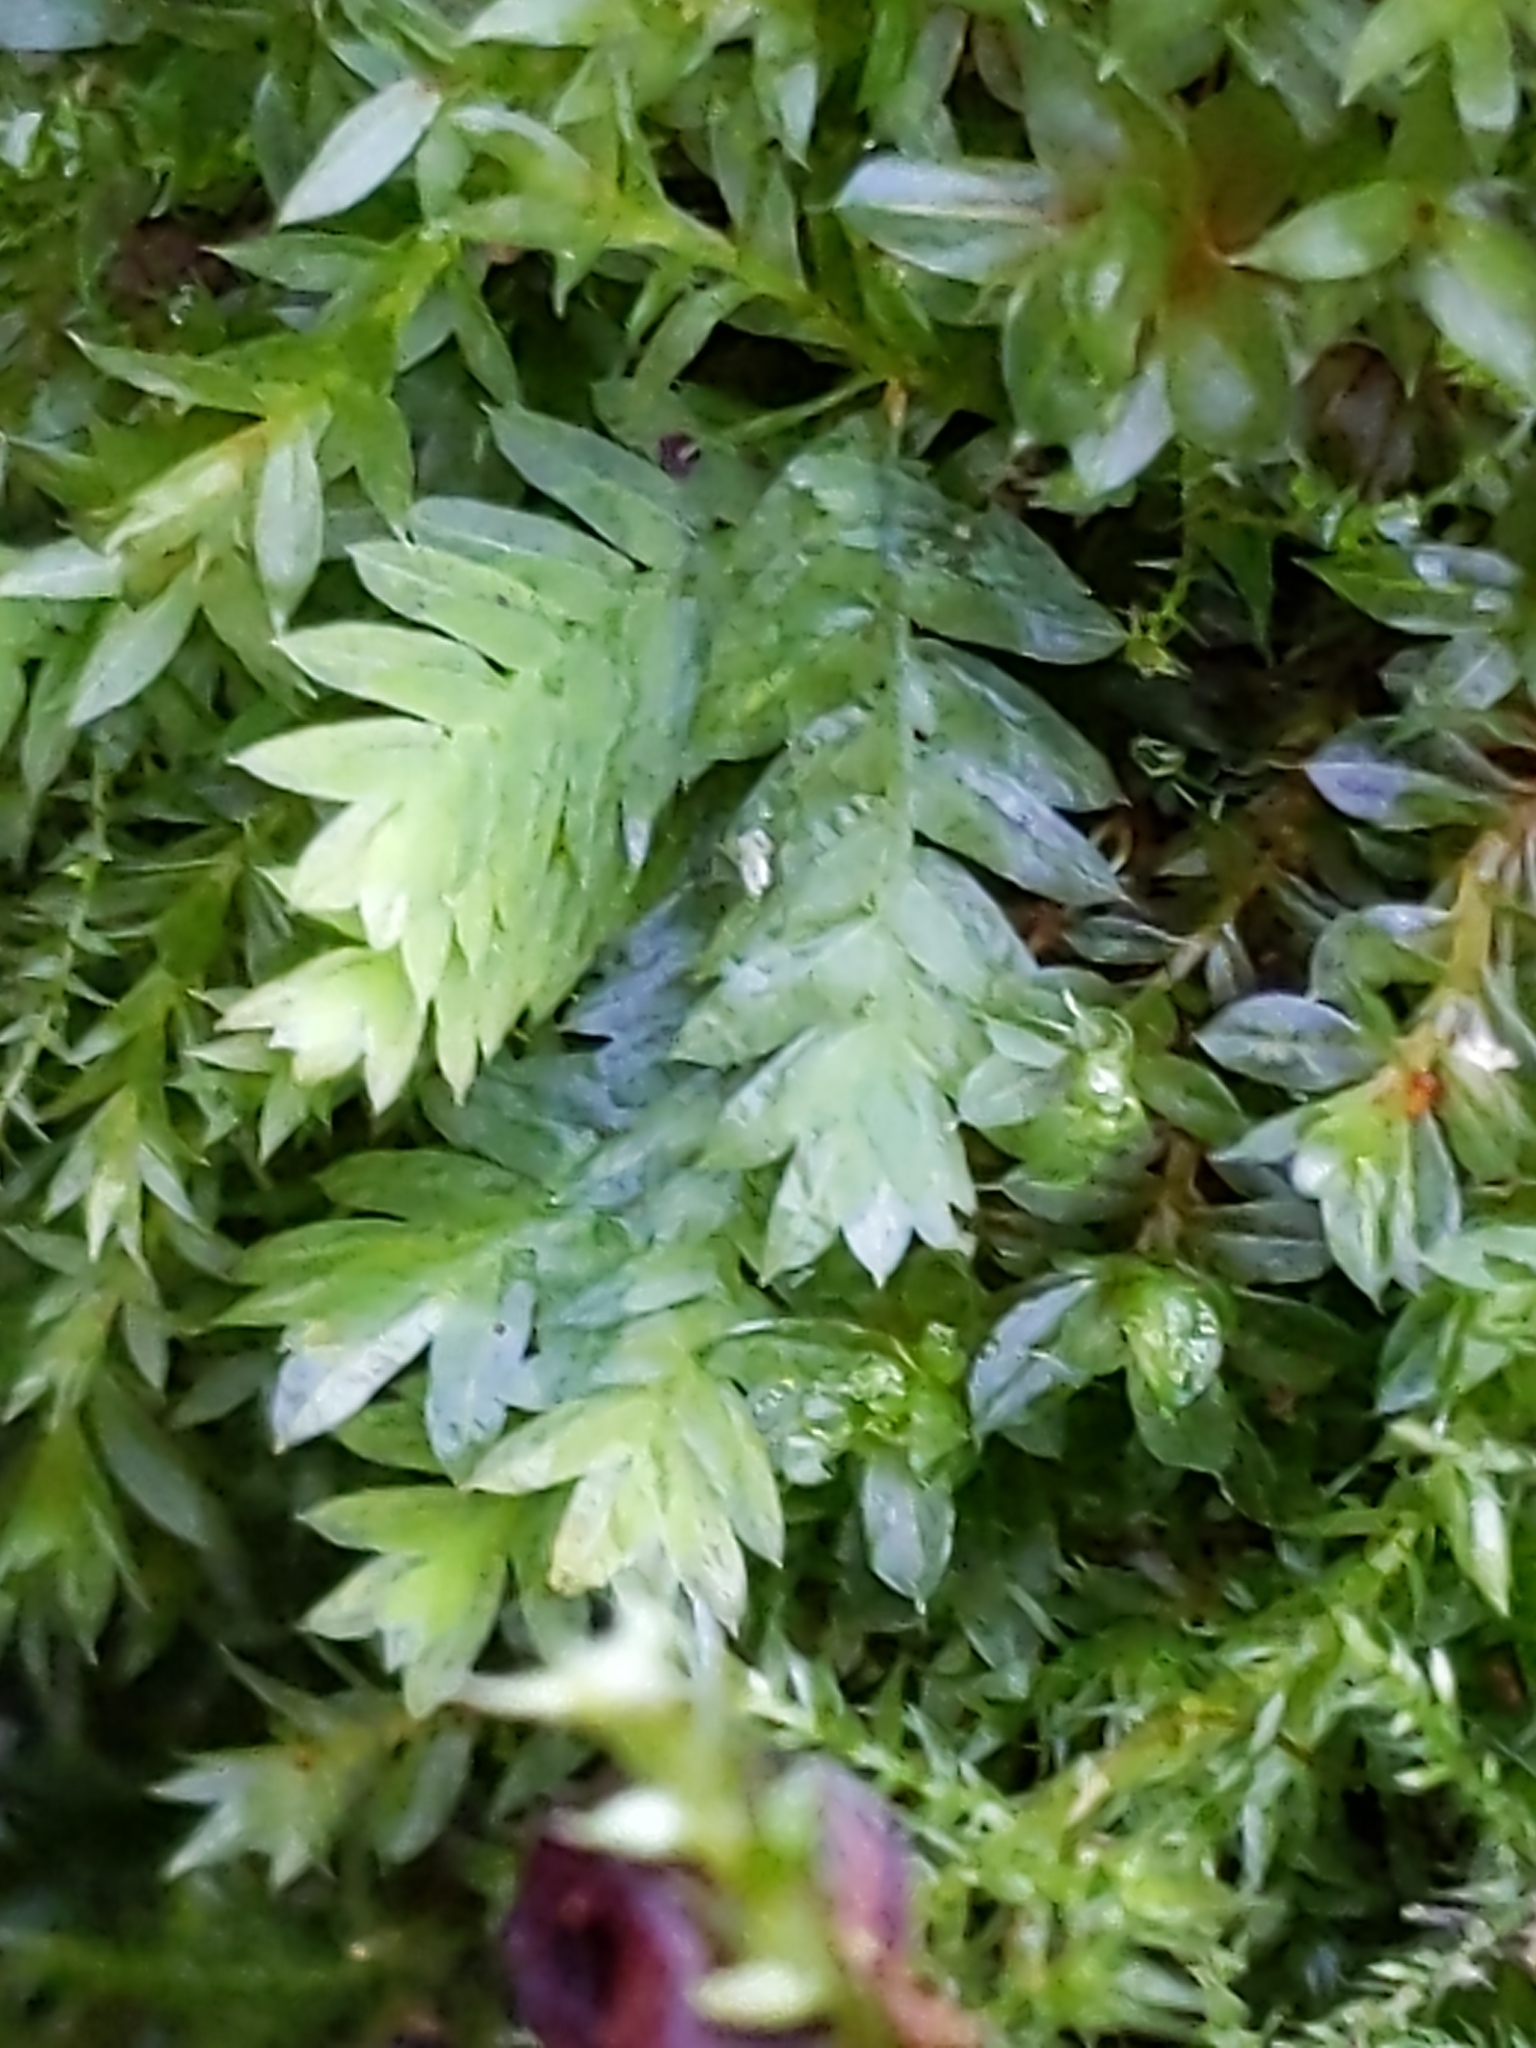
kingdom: Plantae
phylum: Bryophyta
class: Bryopsida
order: Dicranales
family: Fissidentaceae
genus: Fissidens
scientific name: Fissidens taxifolius
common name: Yew-leaved pocket moss
